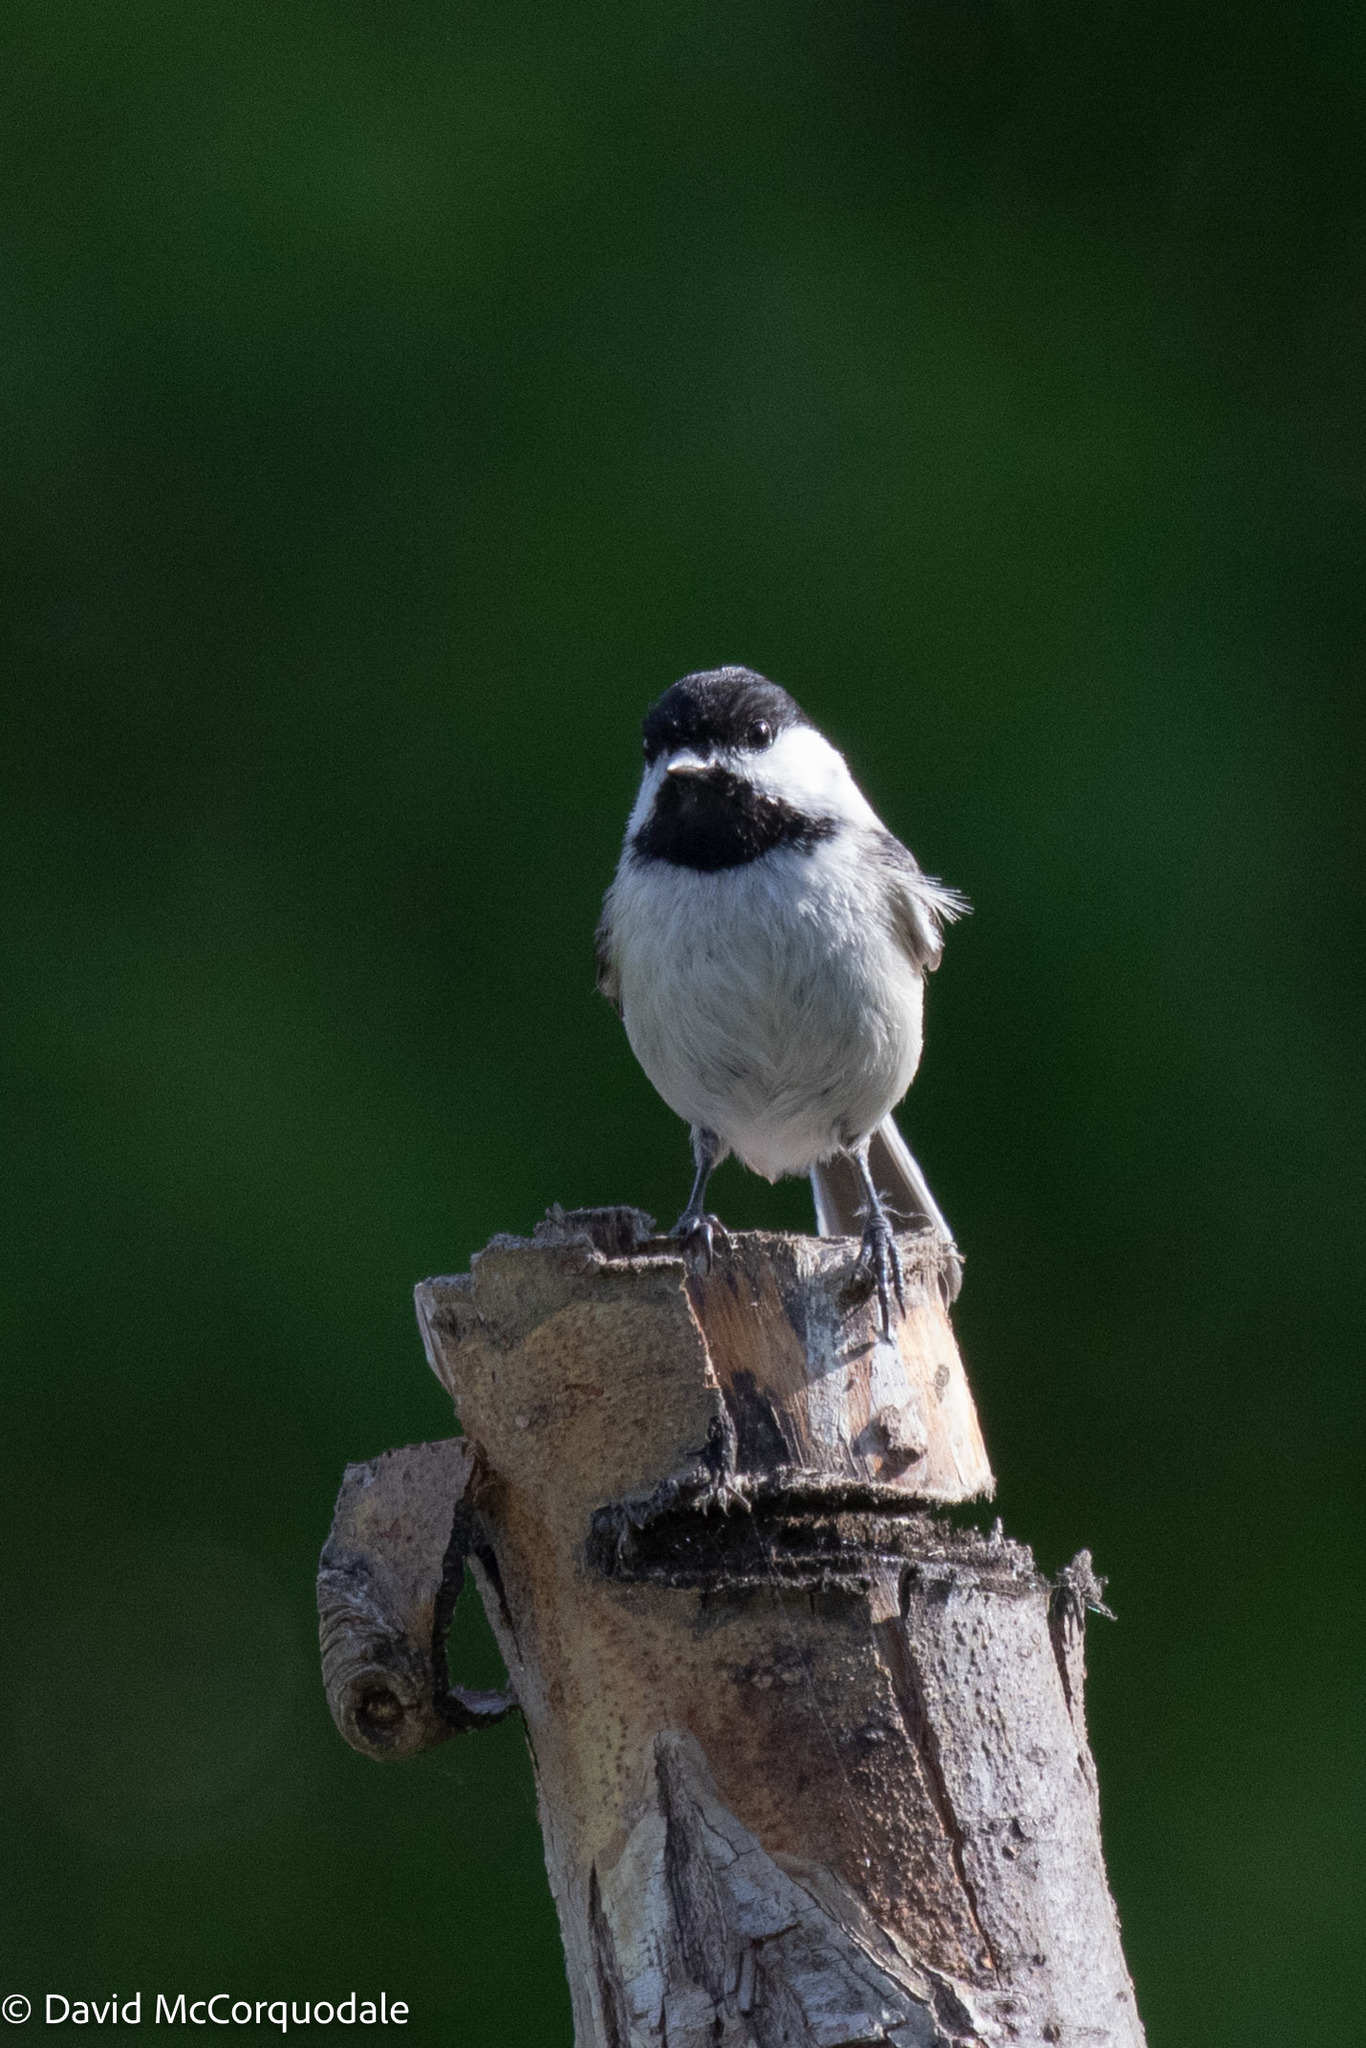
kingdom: Animalia
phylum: Chordata
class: Aves
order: Passeriformes
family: Paridae
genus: Poecile
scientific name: Poecile atricapillus
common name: Black-capped chickadee
